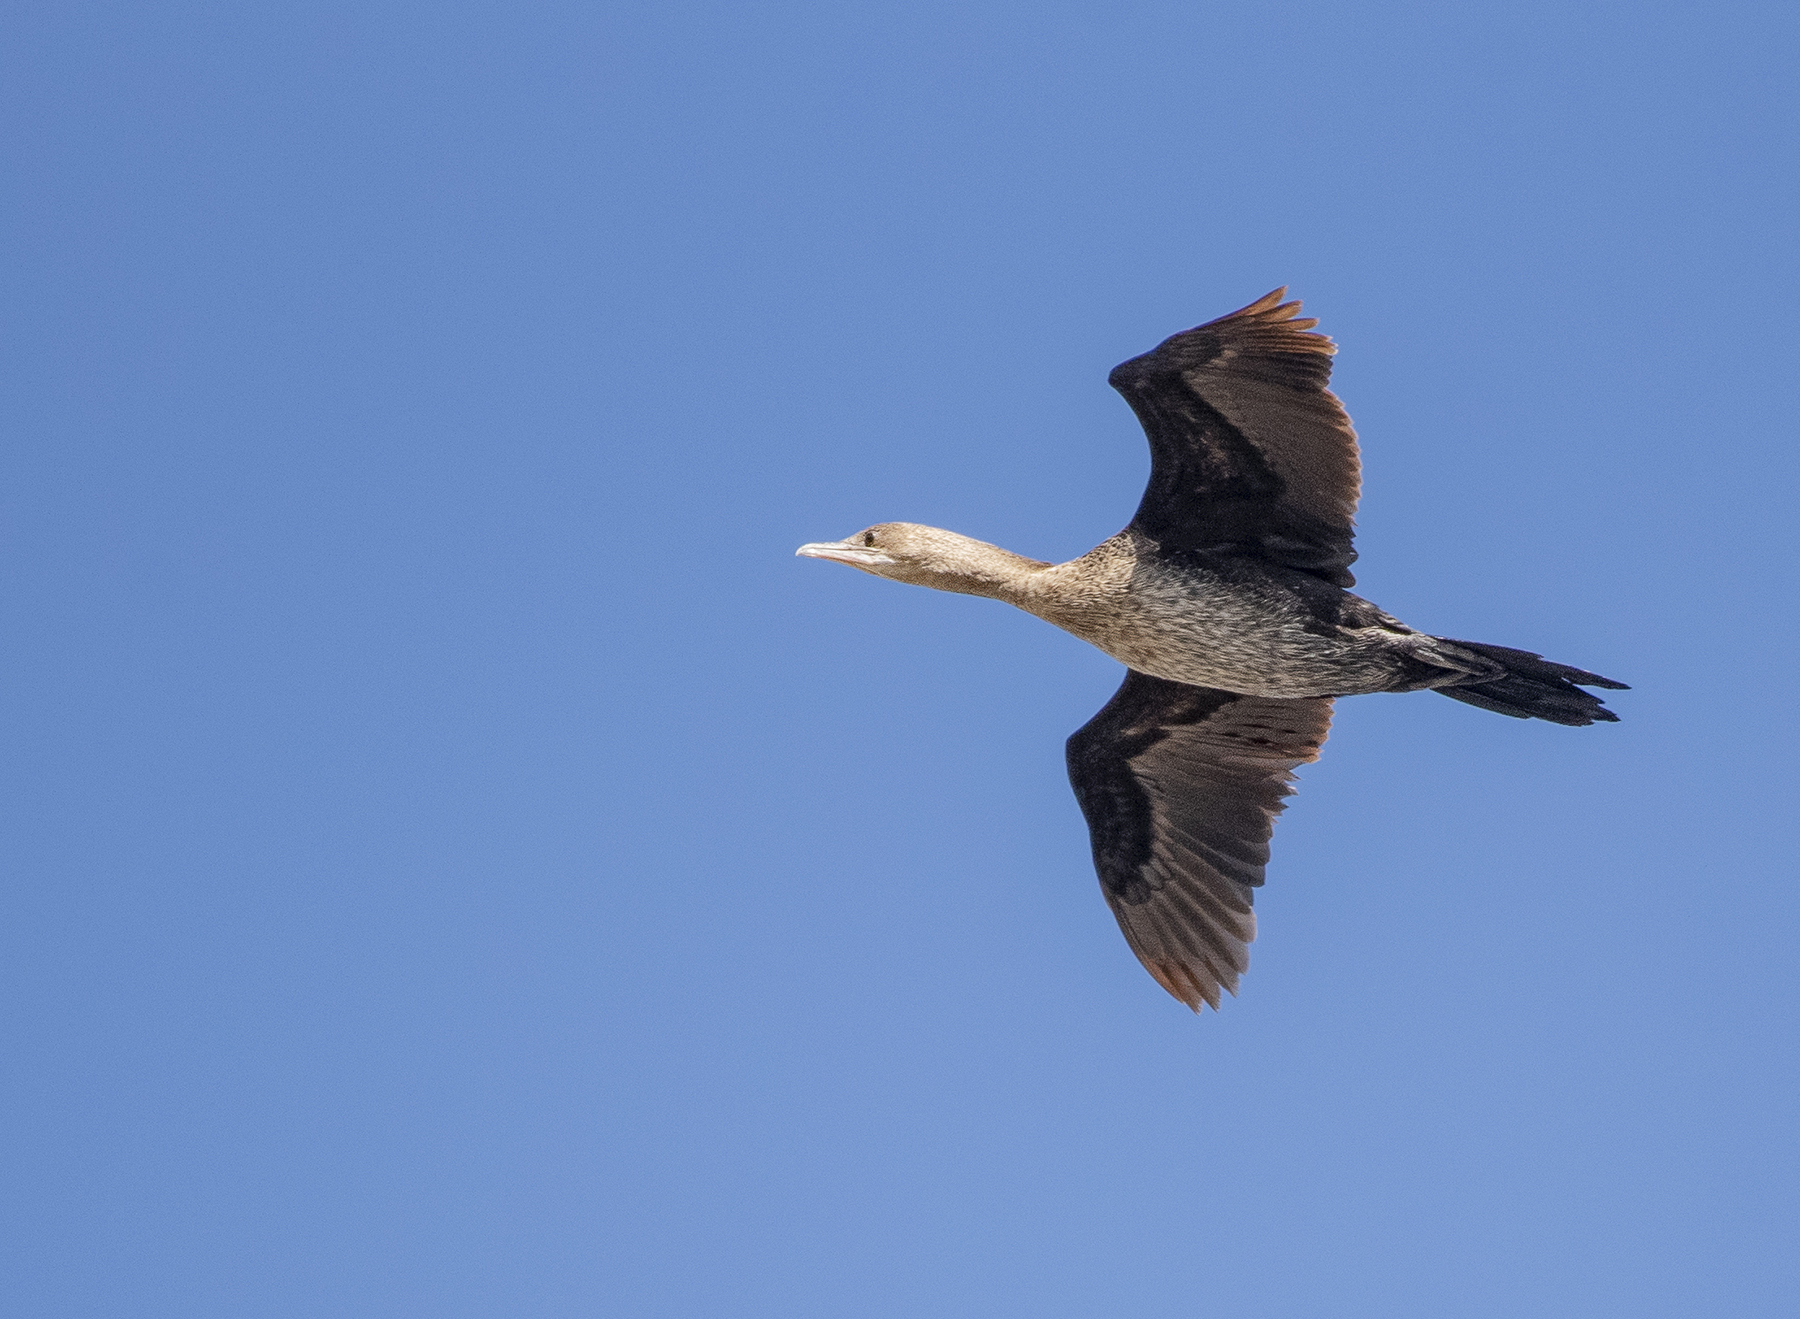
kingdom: Animalia
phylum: Chordata
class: Aves
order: Suliformes
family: Phalacrocoracidae
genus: Microcarbo
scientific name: Microcarbo pygmaeus
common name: Pygmy cormorant
